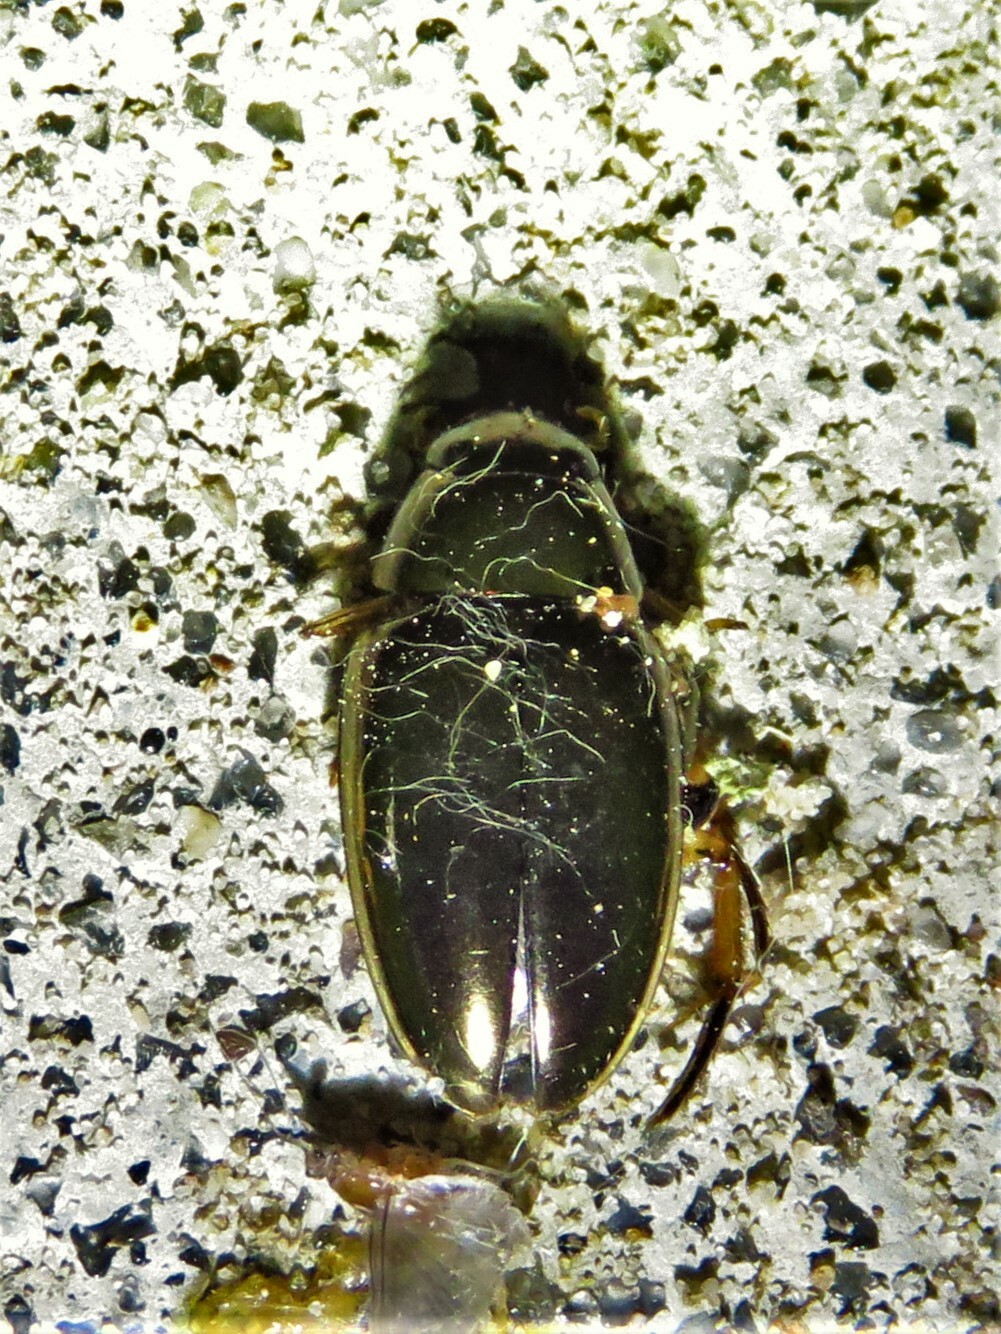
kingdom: Animalia
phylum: Arthropoda
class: Insecta
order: Coleoptera
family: Hydrophilidae
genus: Tropisternus
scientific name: Tropisternus lateralis
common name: Lateral-banded water scavenger beetle
